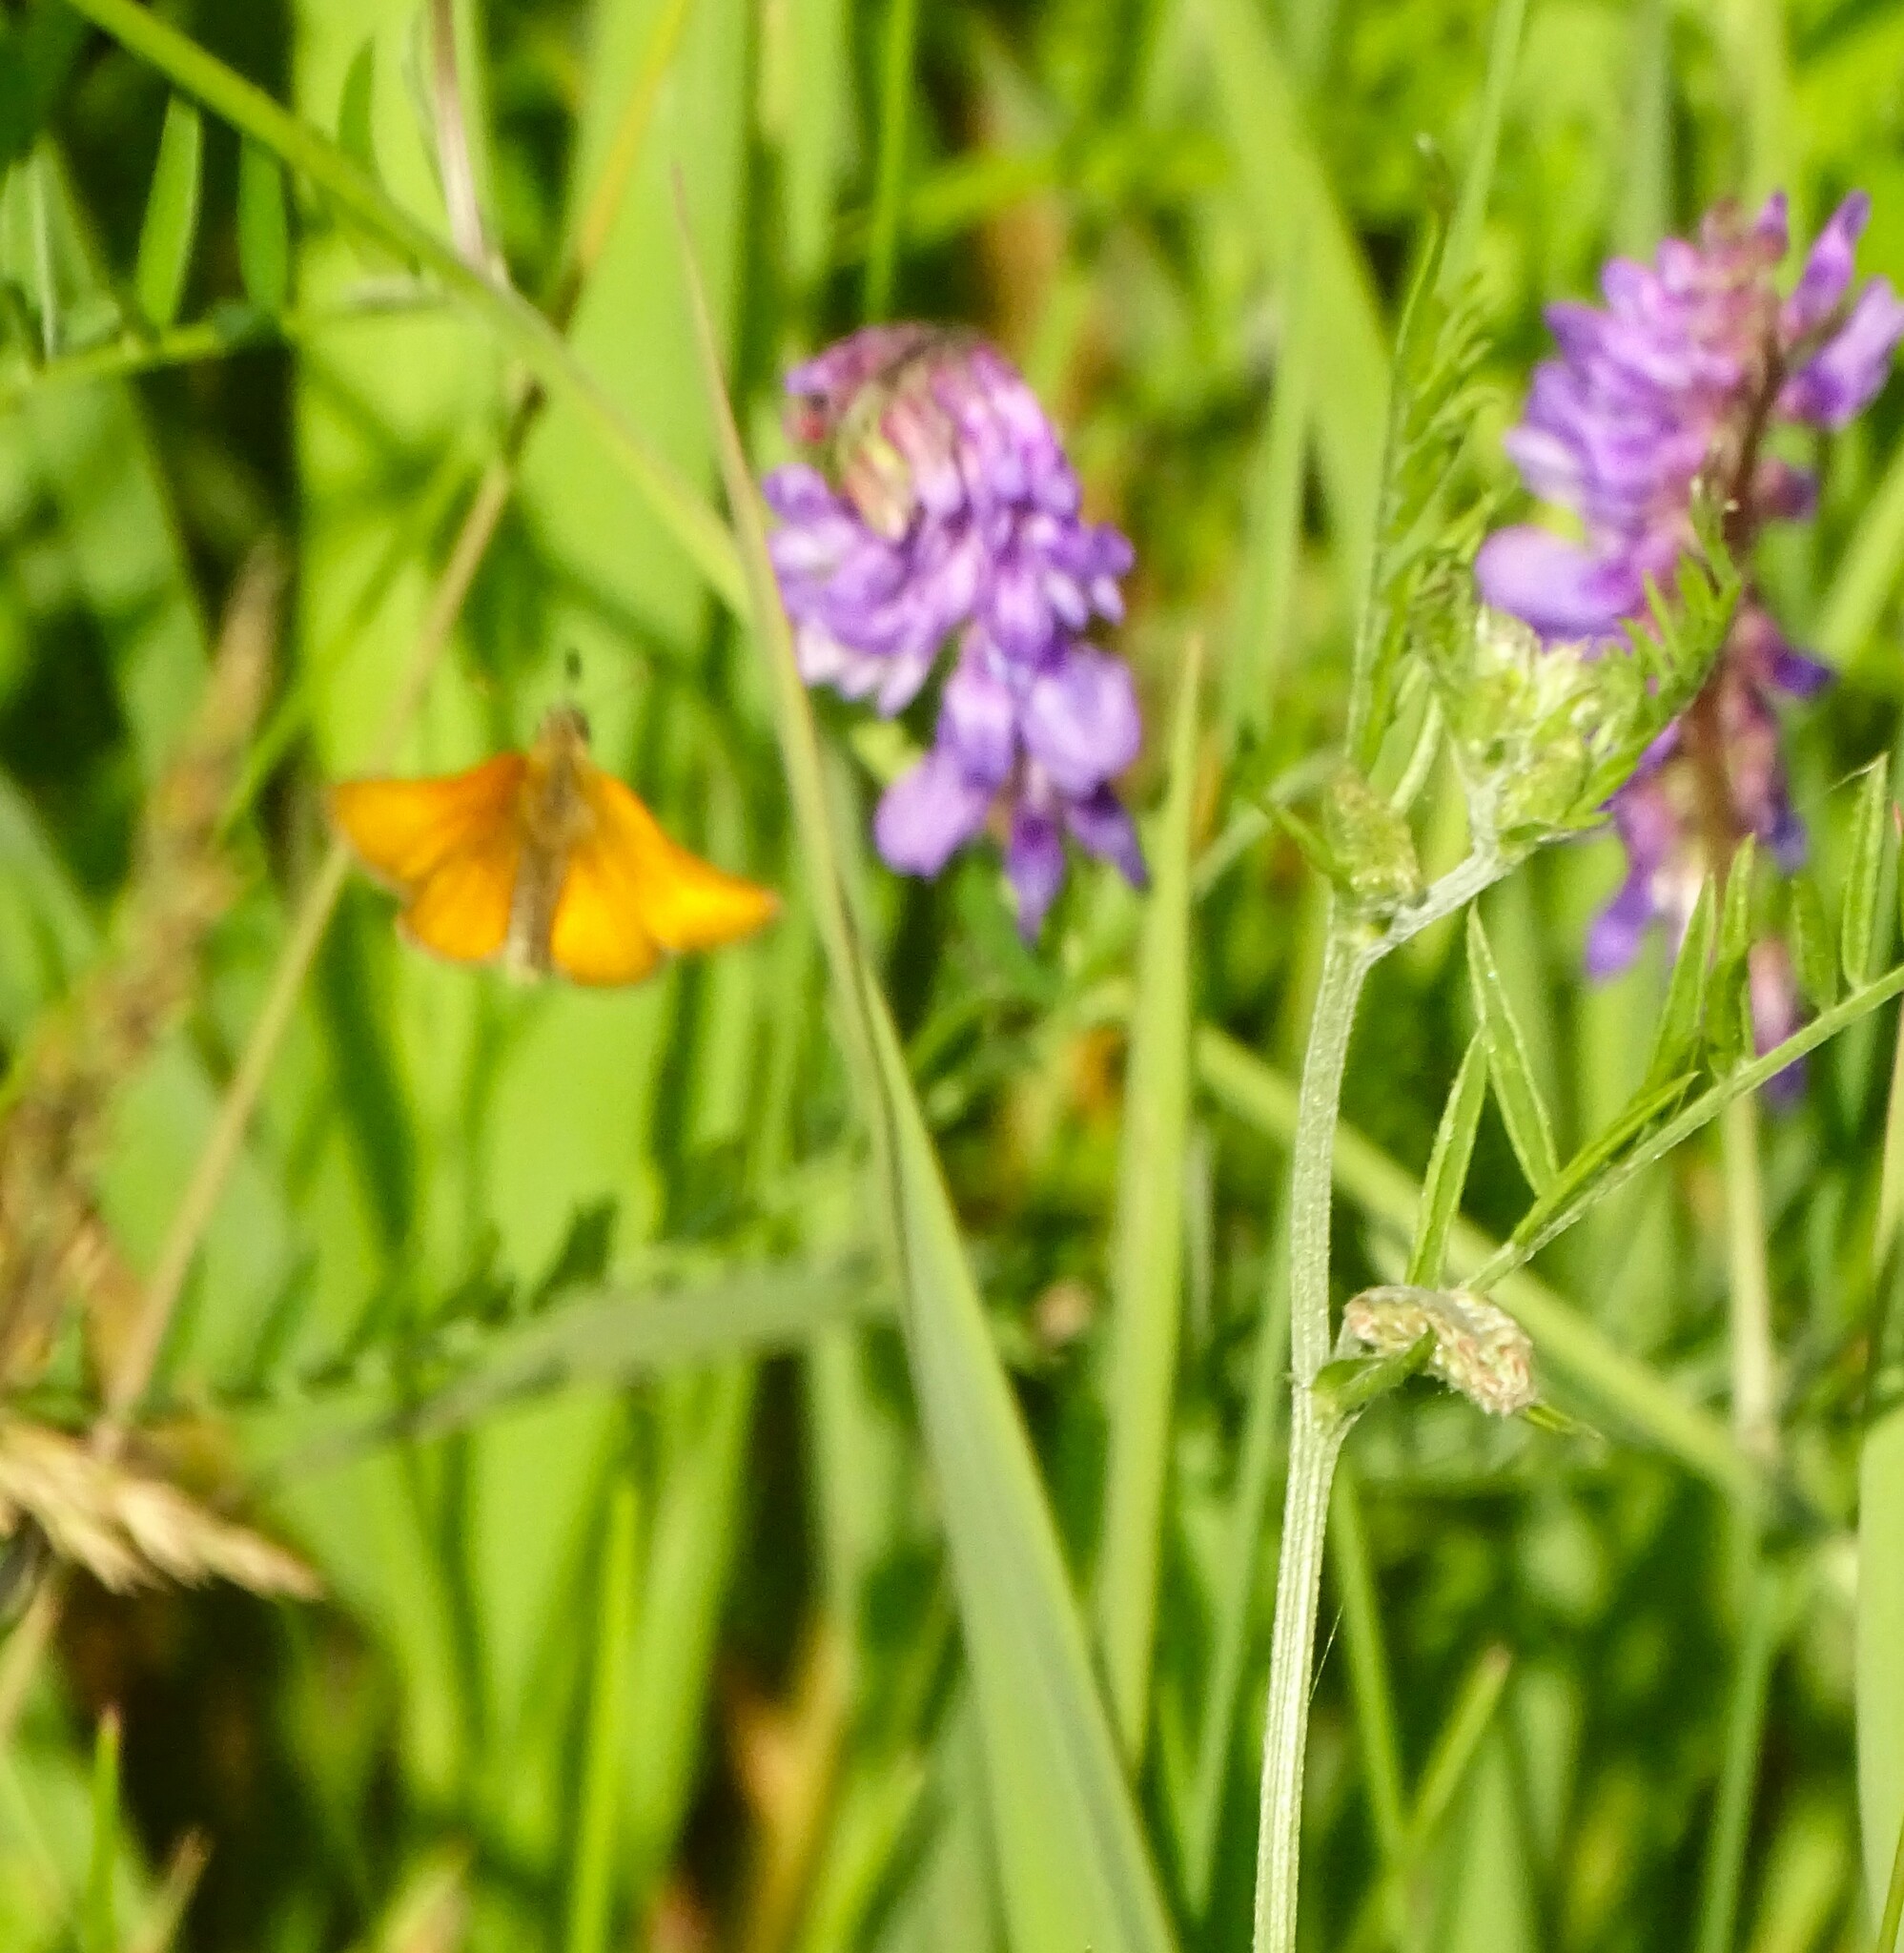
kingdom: Animalia
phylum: Arthropoda
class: Insecta
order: Lepidoptera
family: Hesperiidae
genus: Thymelicus
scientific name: Thymelicus lineola
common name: Essex skipper
